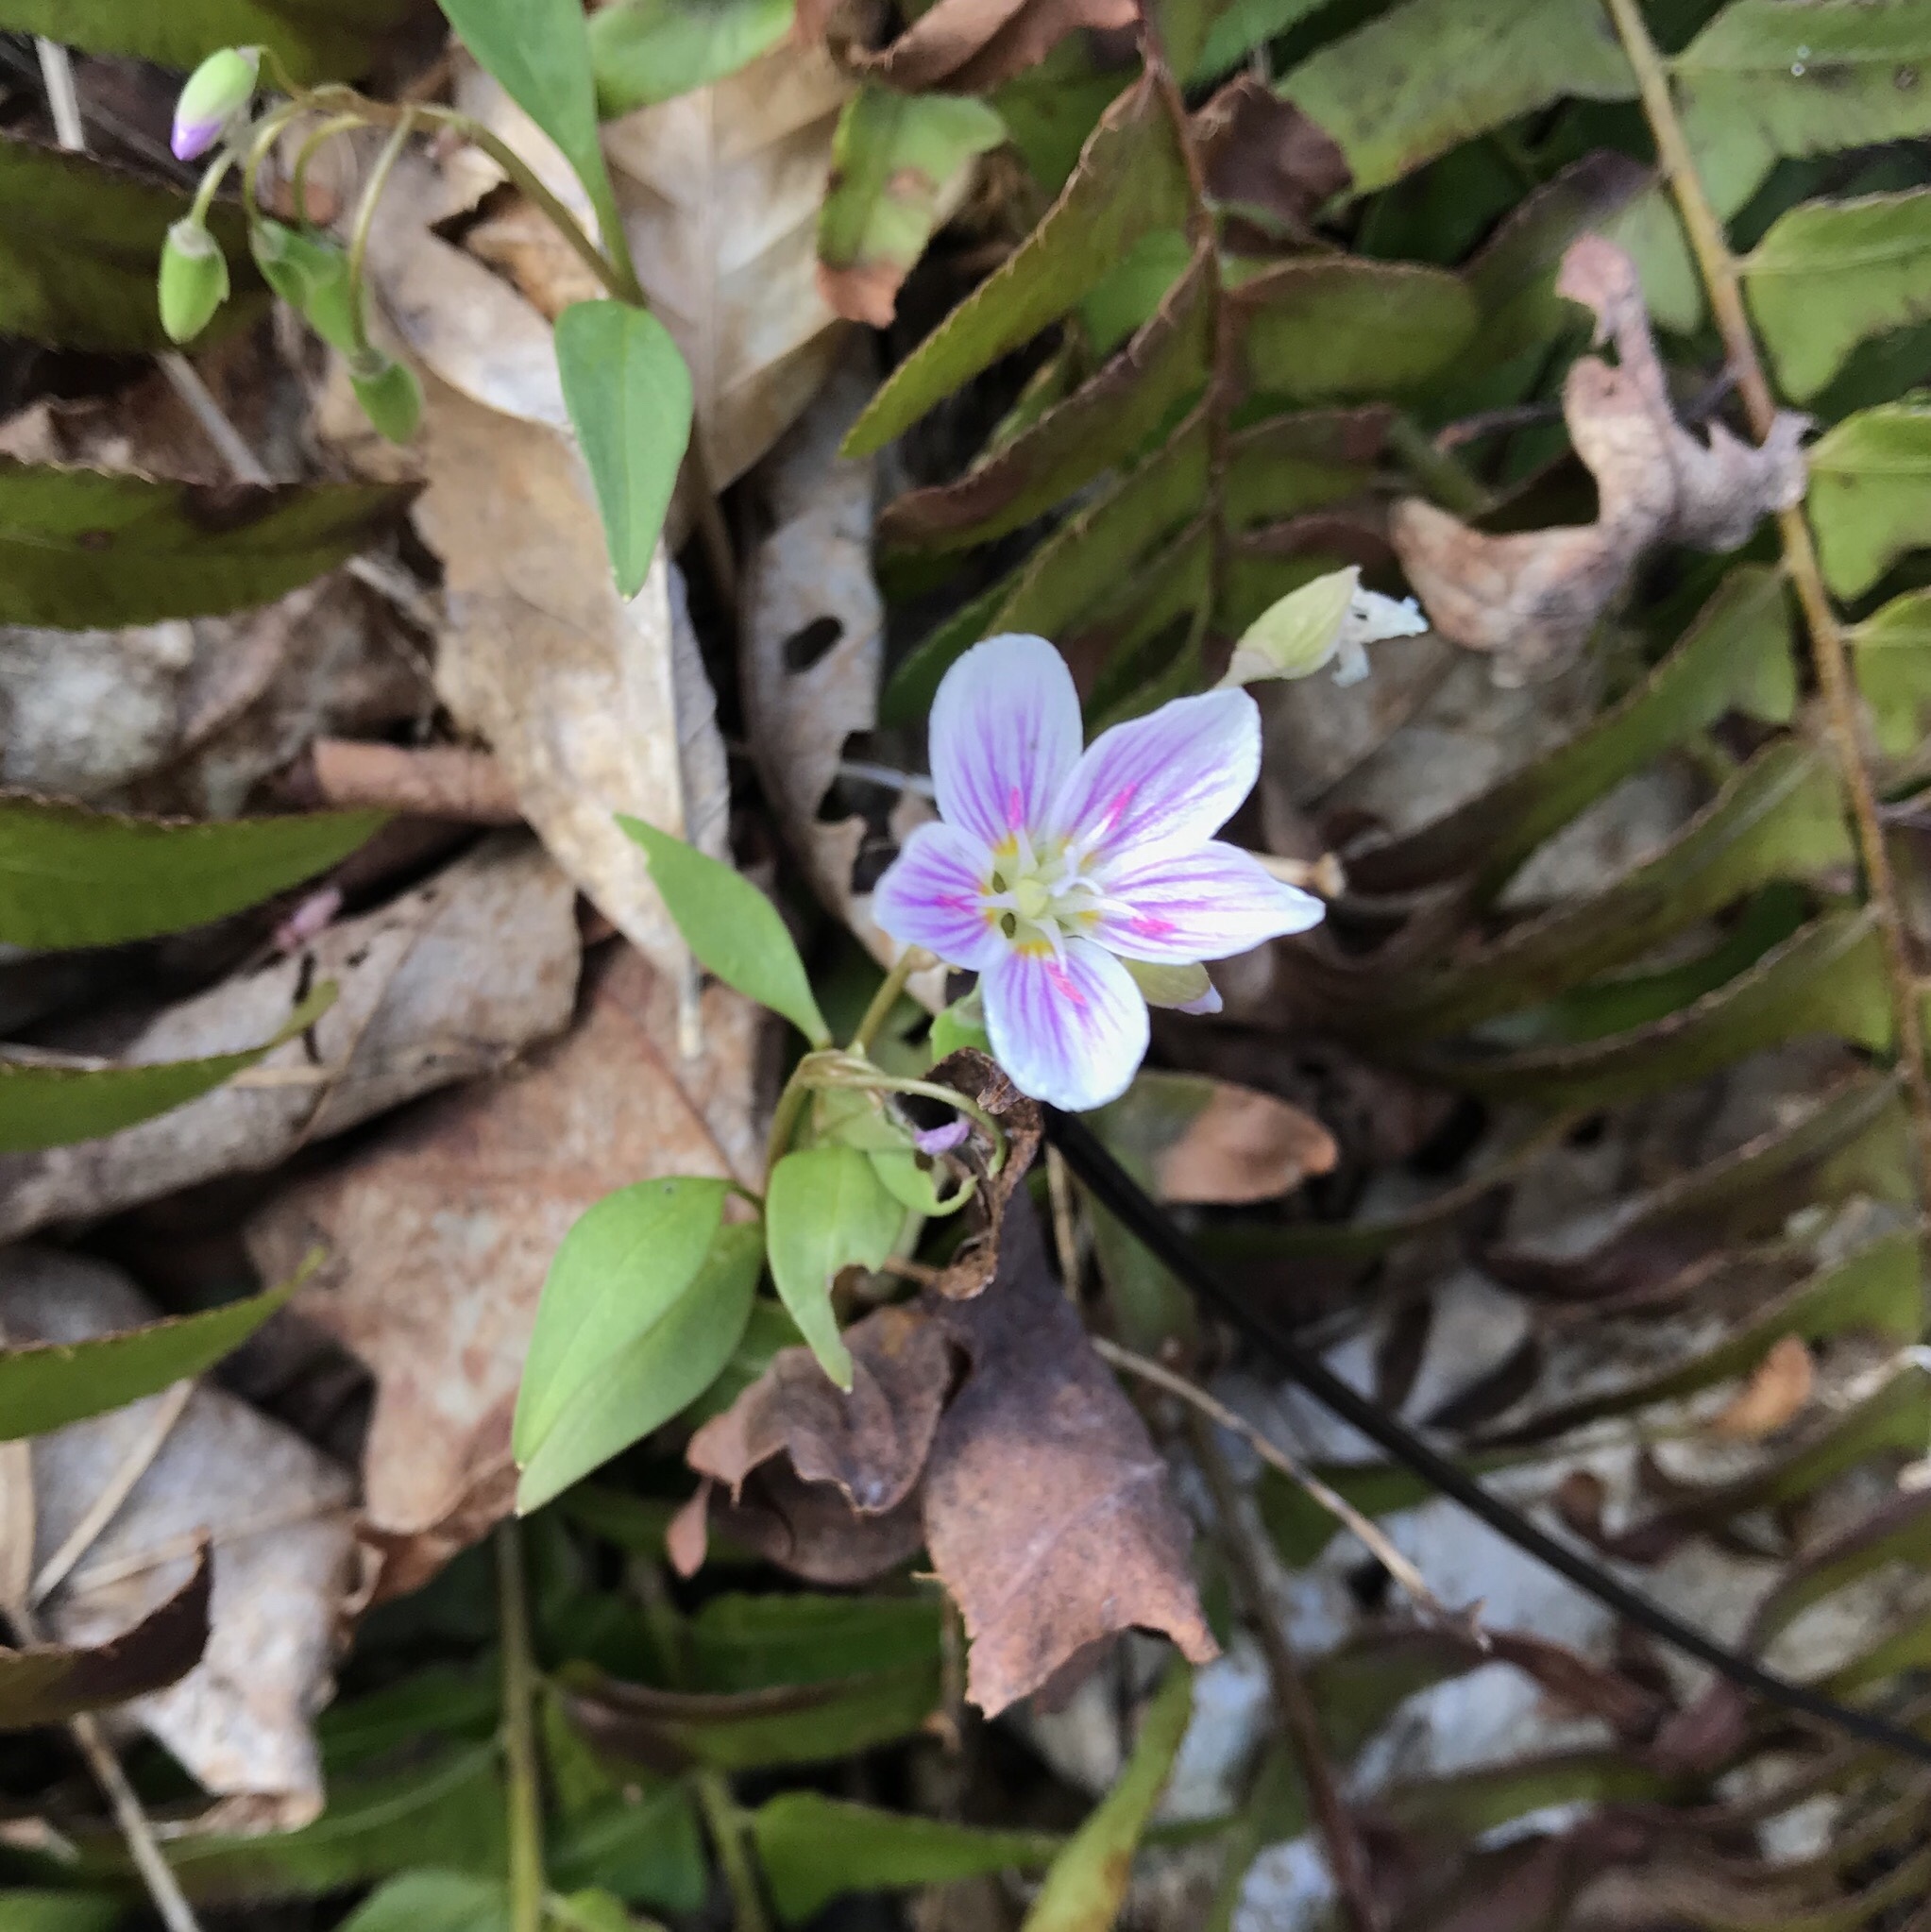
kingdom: Plantae
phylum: Tracheophyta
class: Magnoliopsida
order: Caryophyllales
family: Montiaceae
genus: Claytonia
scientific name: Claytonia caroliniana
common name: Carolina spring beauty
